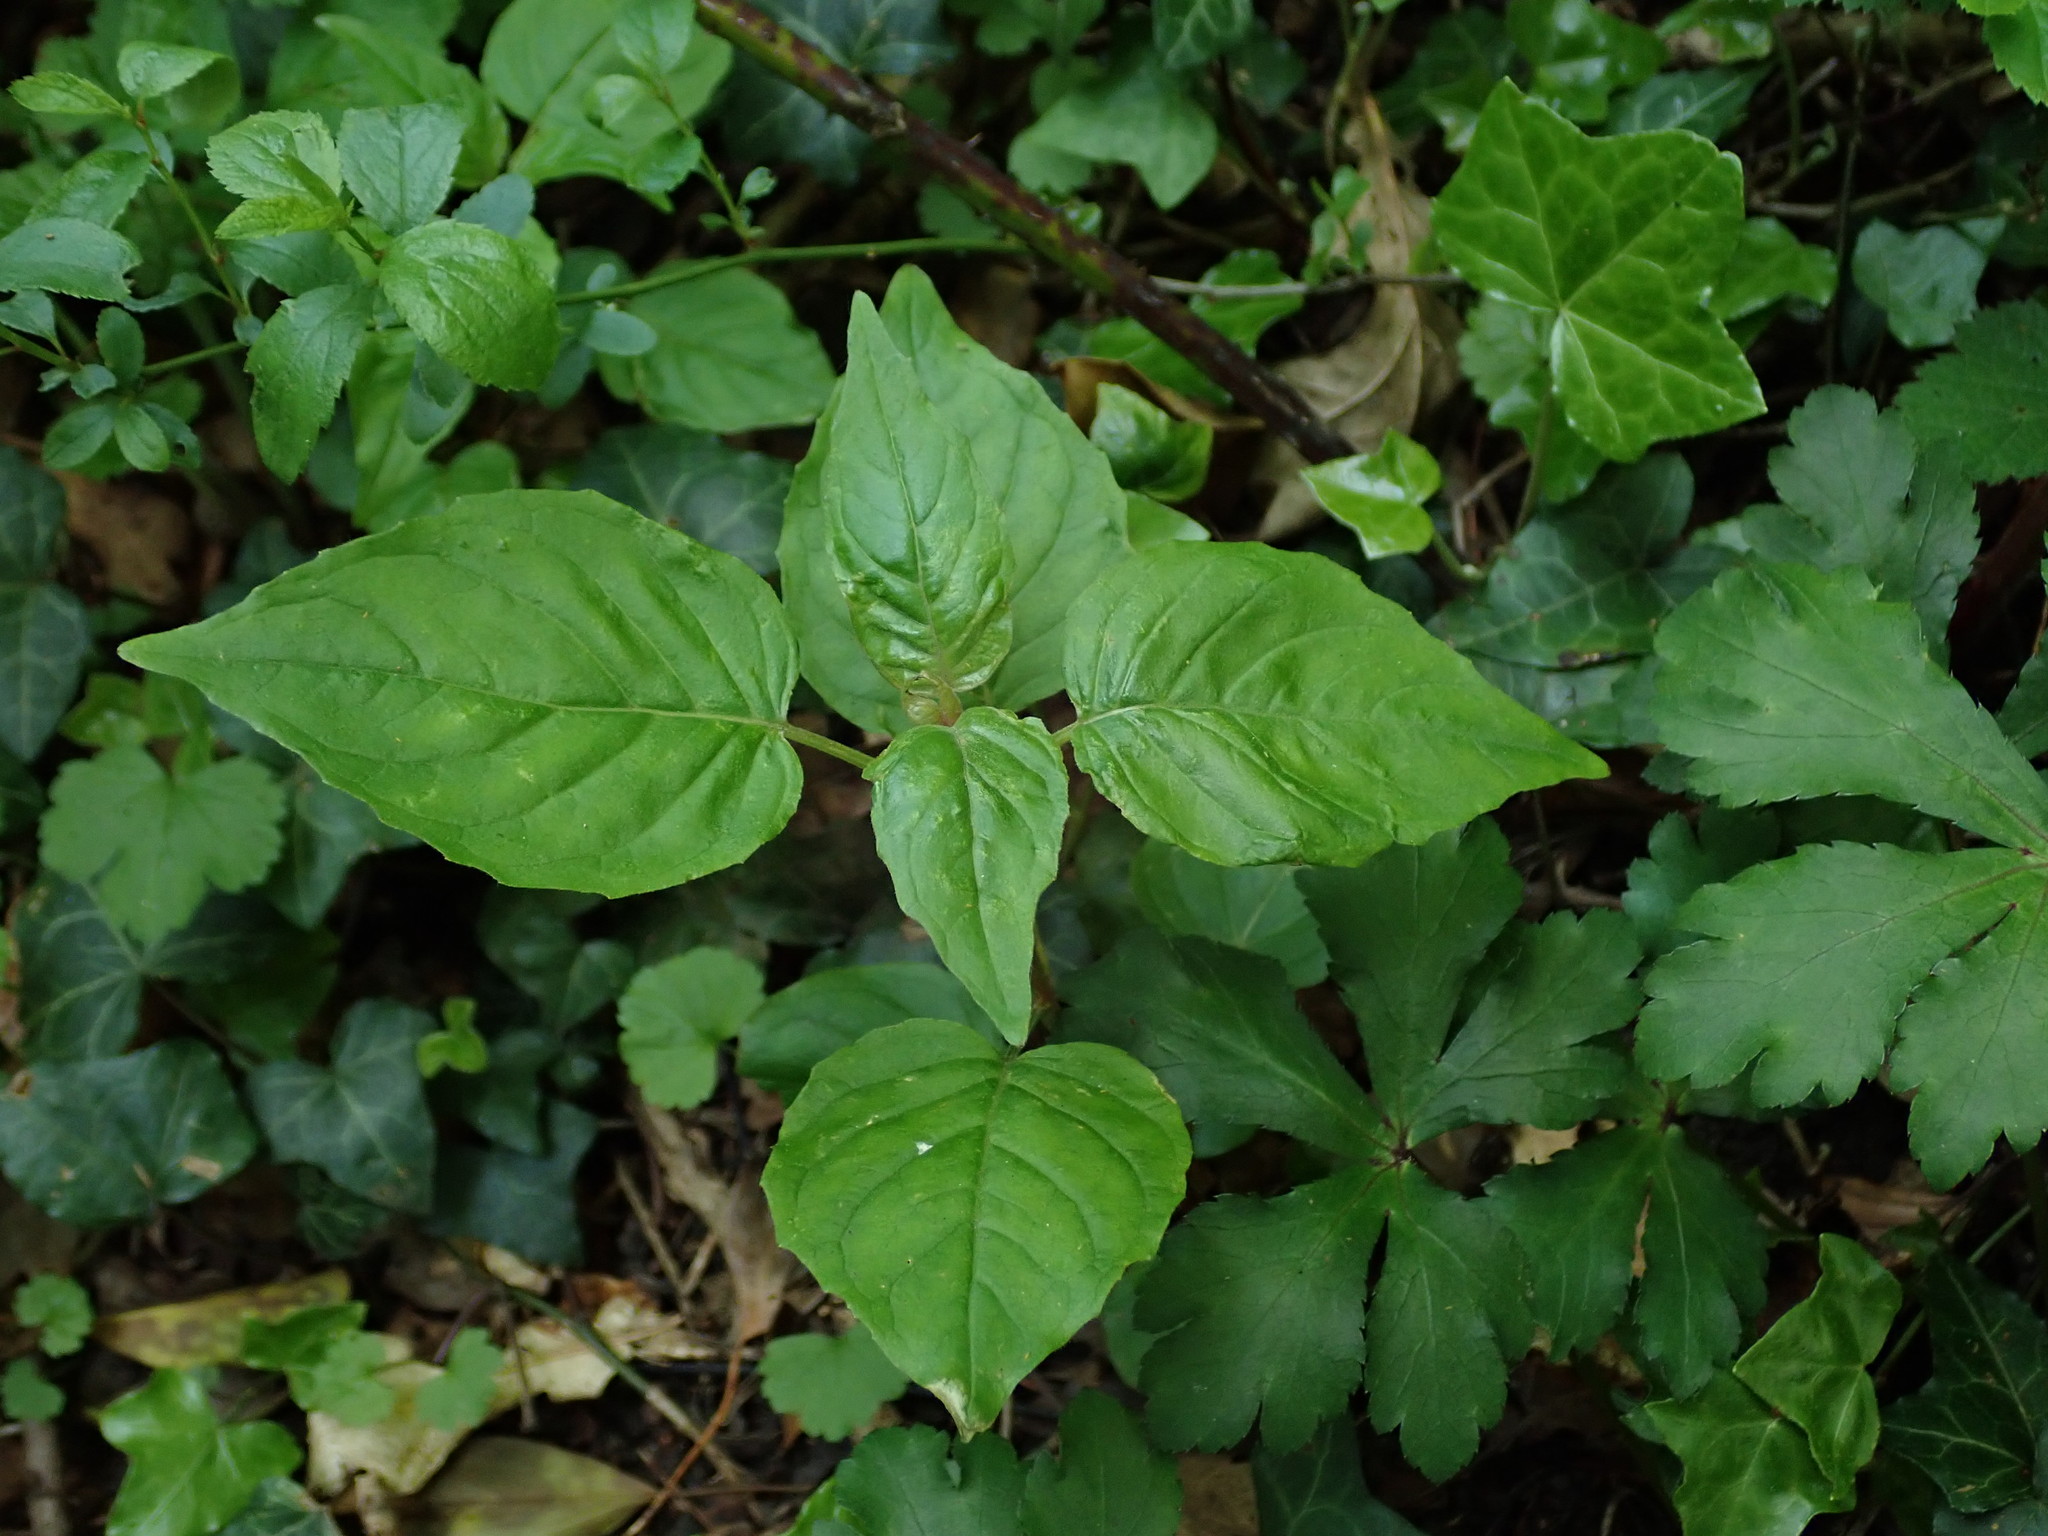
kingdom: Plantae
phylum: Tracheophyta
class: Magnoliopsida
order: Myrtales
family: Onagraceae
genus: Circaea
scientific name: Circaea lutetiana
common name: Enchanter's-nightshade
